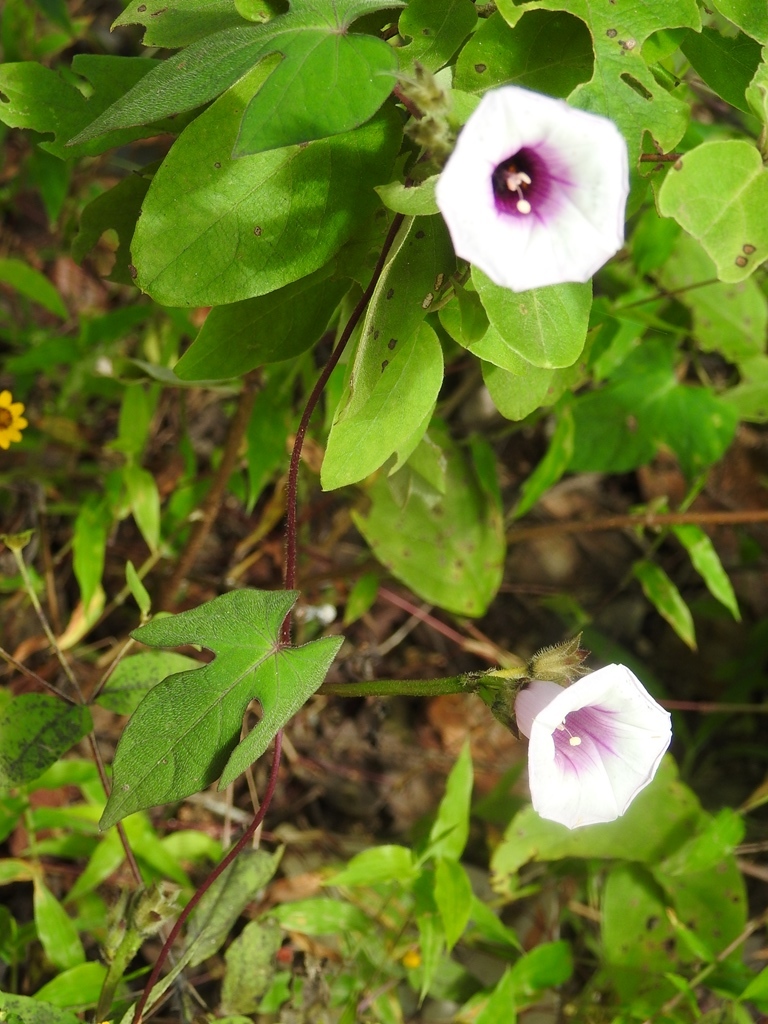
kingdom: Plantae
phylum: Tracheophyta
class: Magnoliopsida
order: Solanales
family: Convolvulaceae
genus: Ipomoea
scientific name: Ipomoea batatas
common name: Sweet-potato
